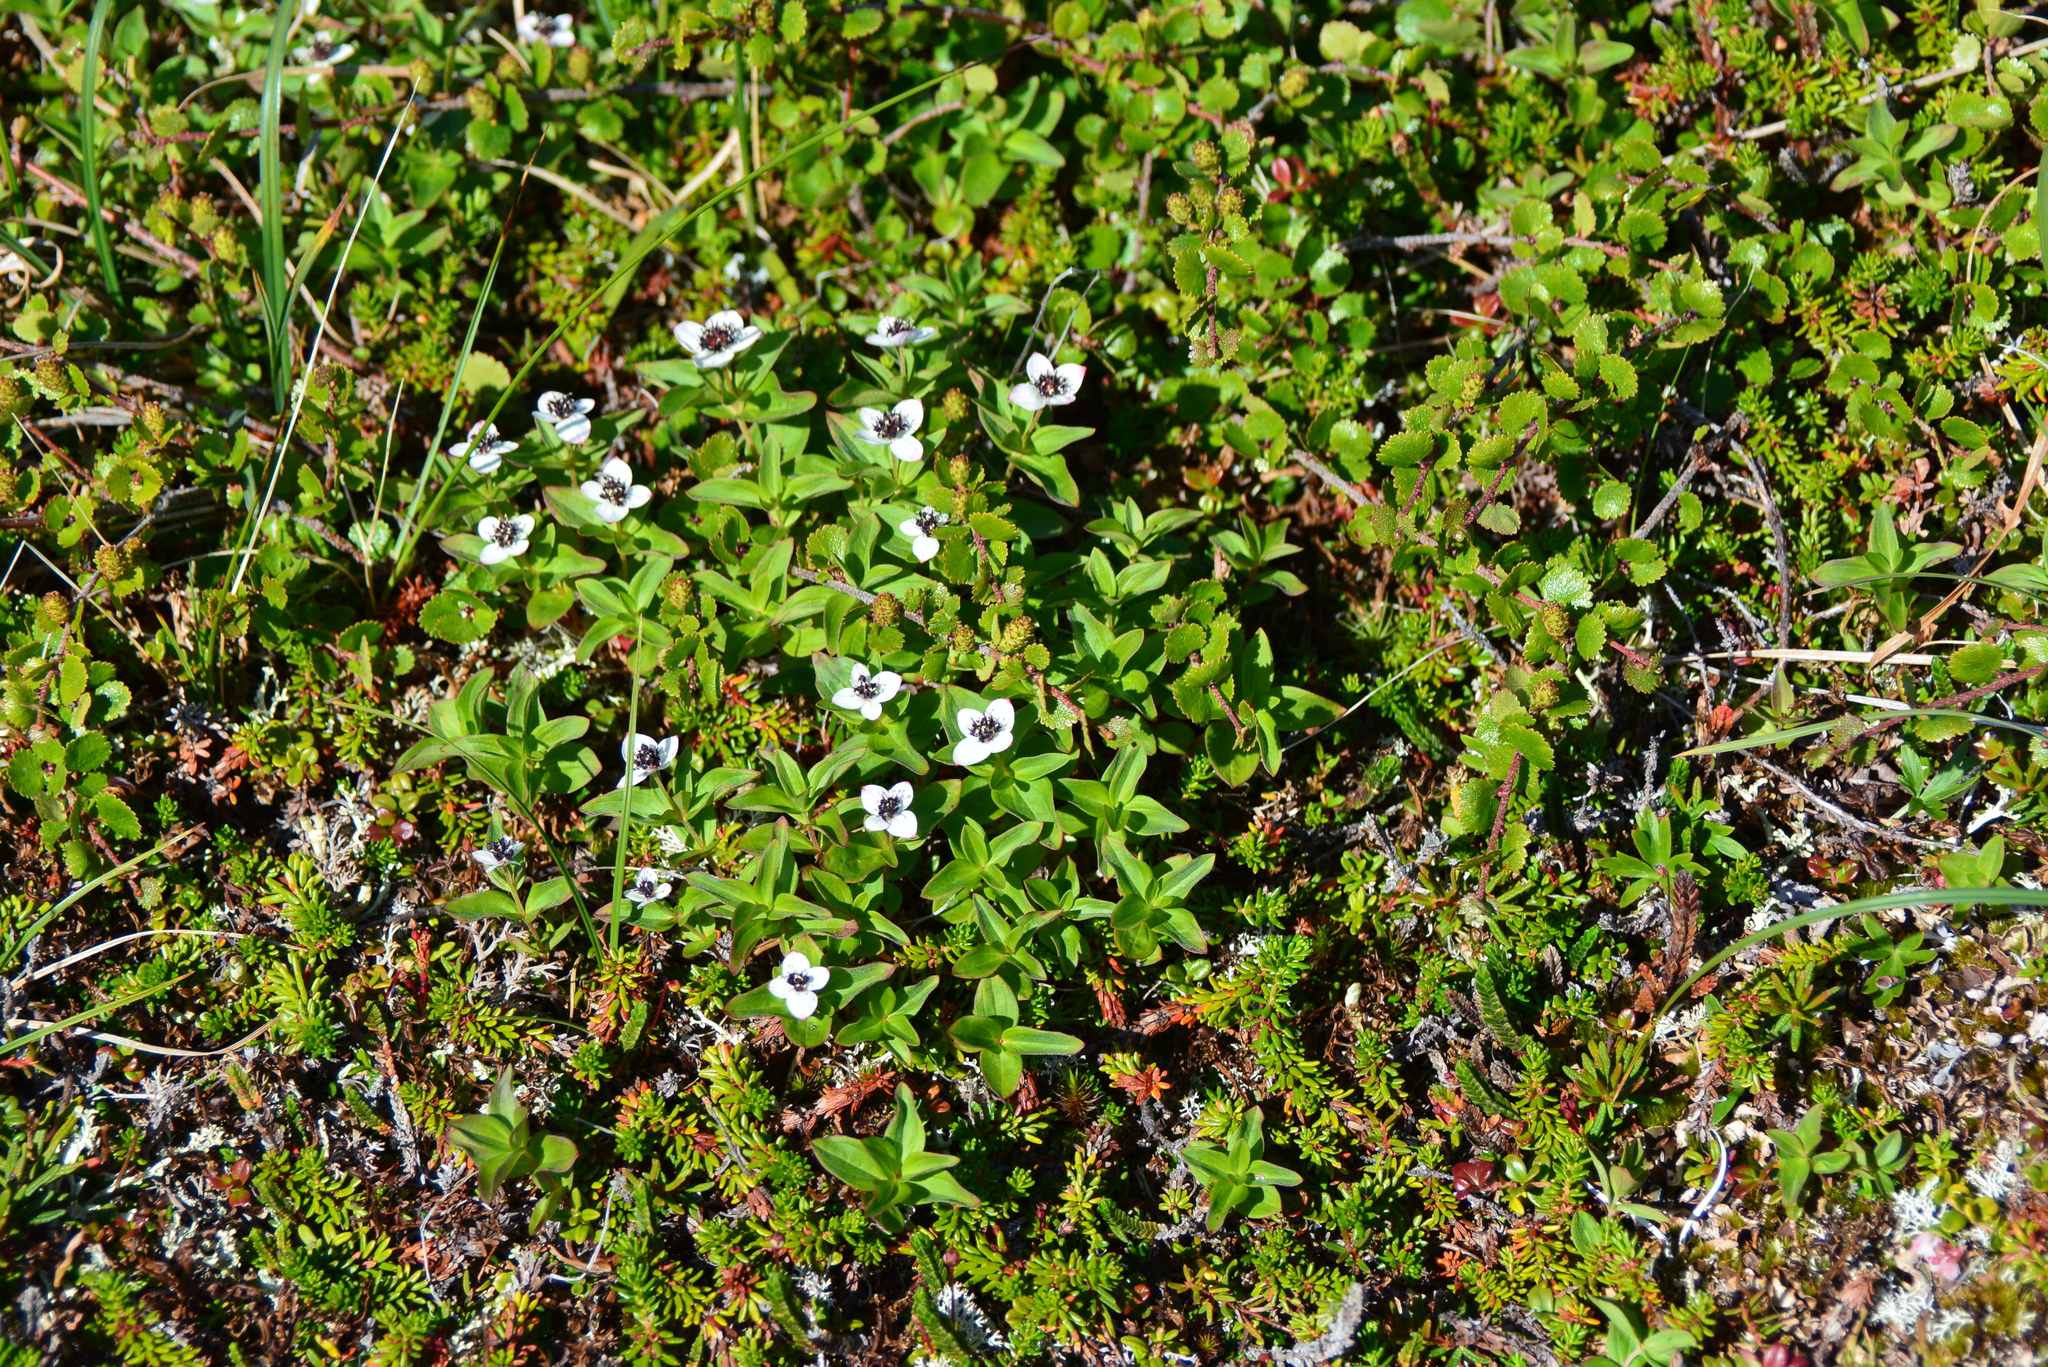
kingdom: Plantae
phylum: Tracheophyta
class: Magnoliopsida
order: Cornales
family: Cornaceae
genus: Cornus
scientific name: Cornus suecica
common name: Dwarf cornel
